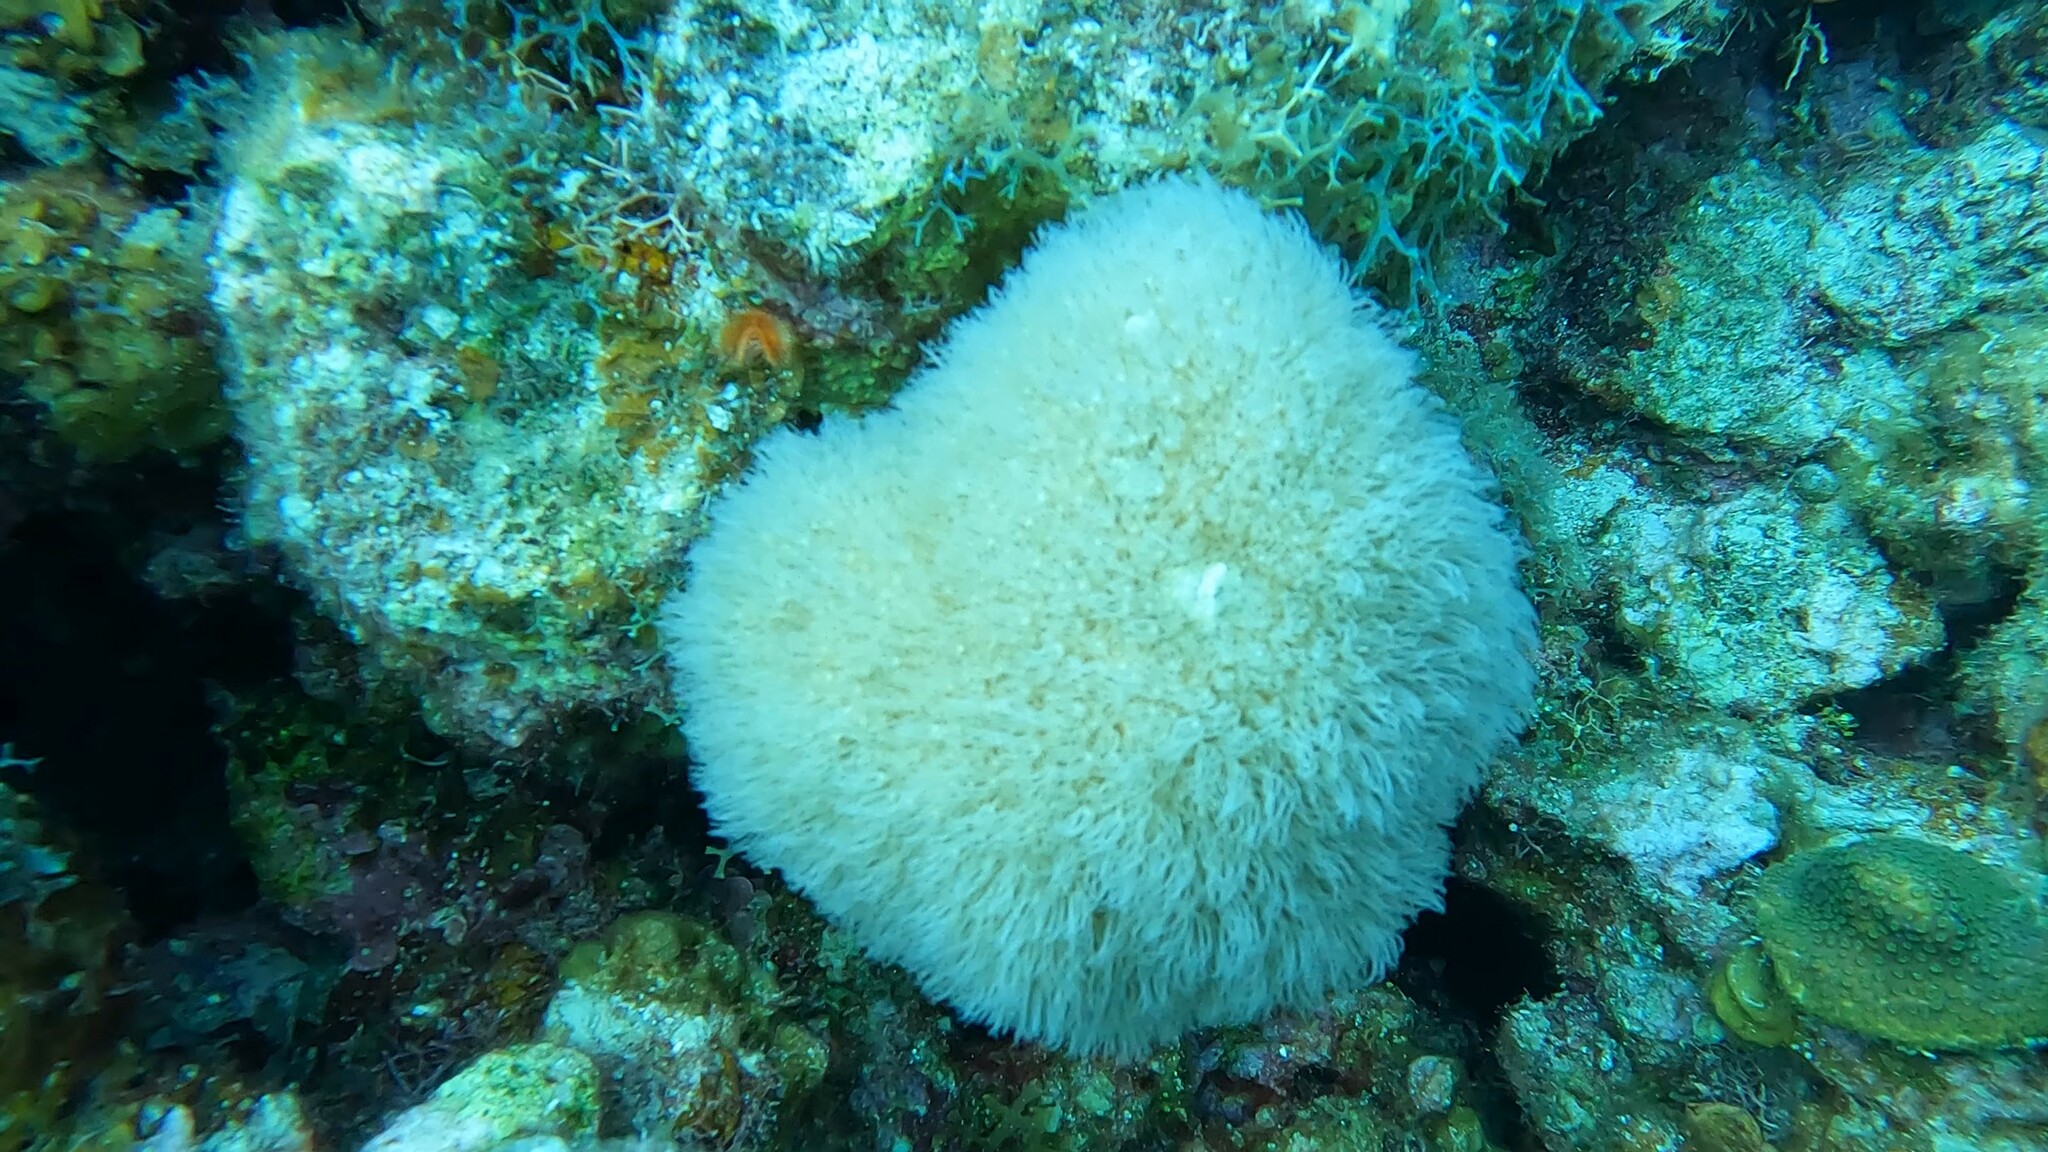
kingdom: Animalia
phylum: Cnidaria
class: Anthozoa
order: Scleralcyonacea
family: Erythropodiidae
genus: Erythropodium
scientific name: Erythropodium caribaeorum
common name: Encrusting gorgonian
